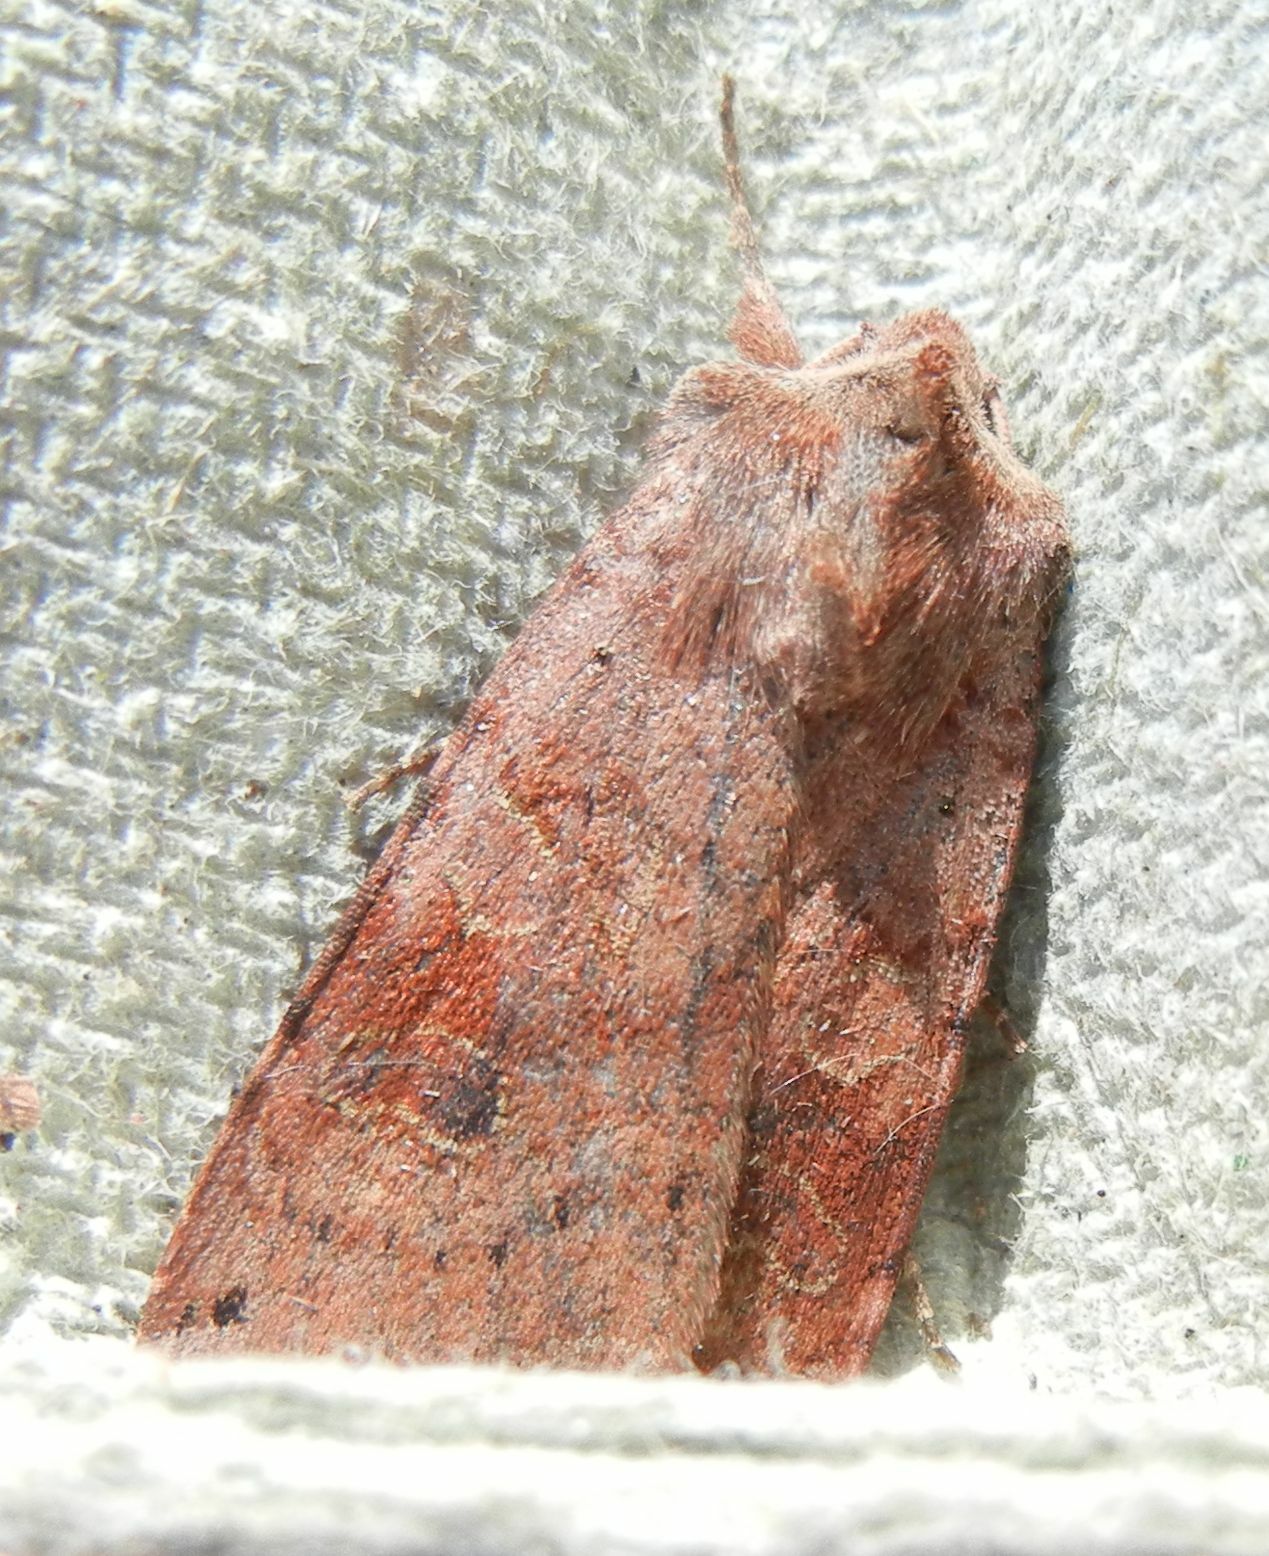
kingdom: Animalia
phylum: Arthropoda
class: Insecta
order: Lepidoptera
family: Noctuidae
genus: Xestia
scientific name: Xestia baja
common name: Dotted clay
